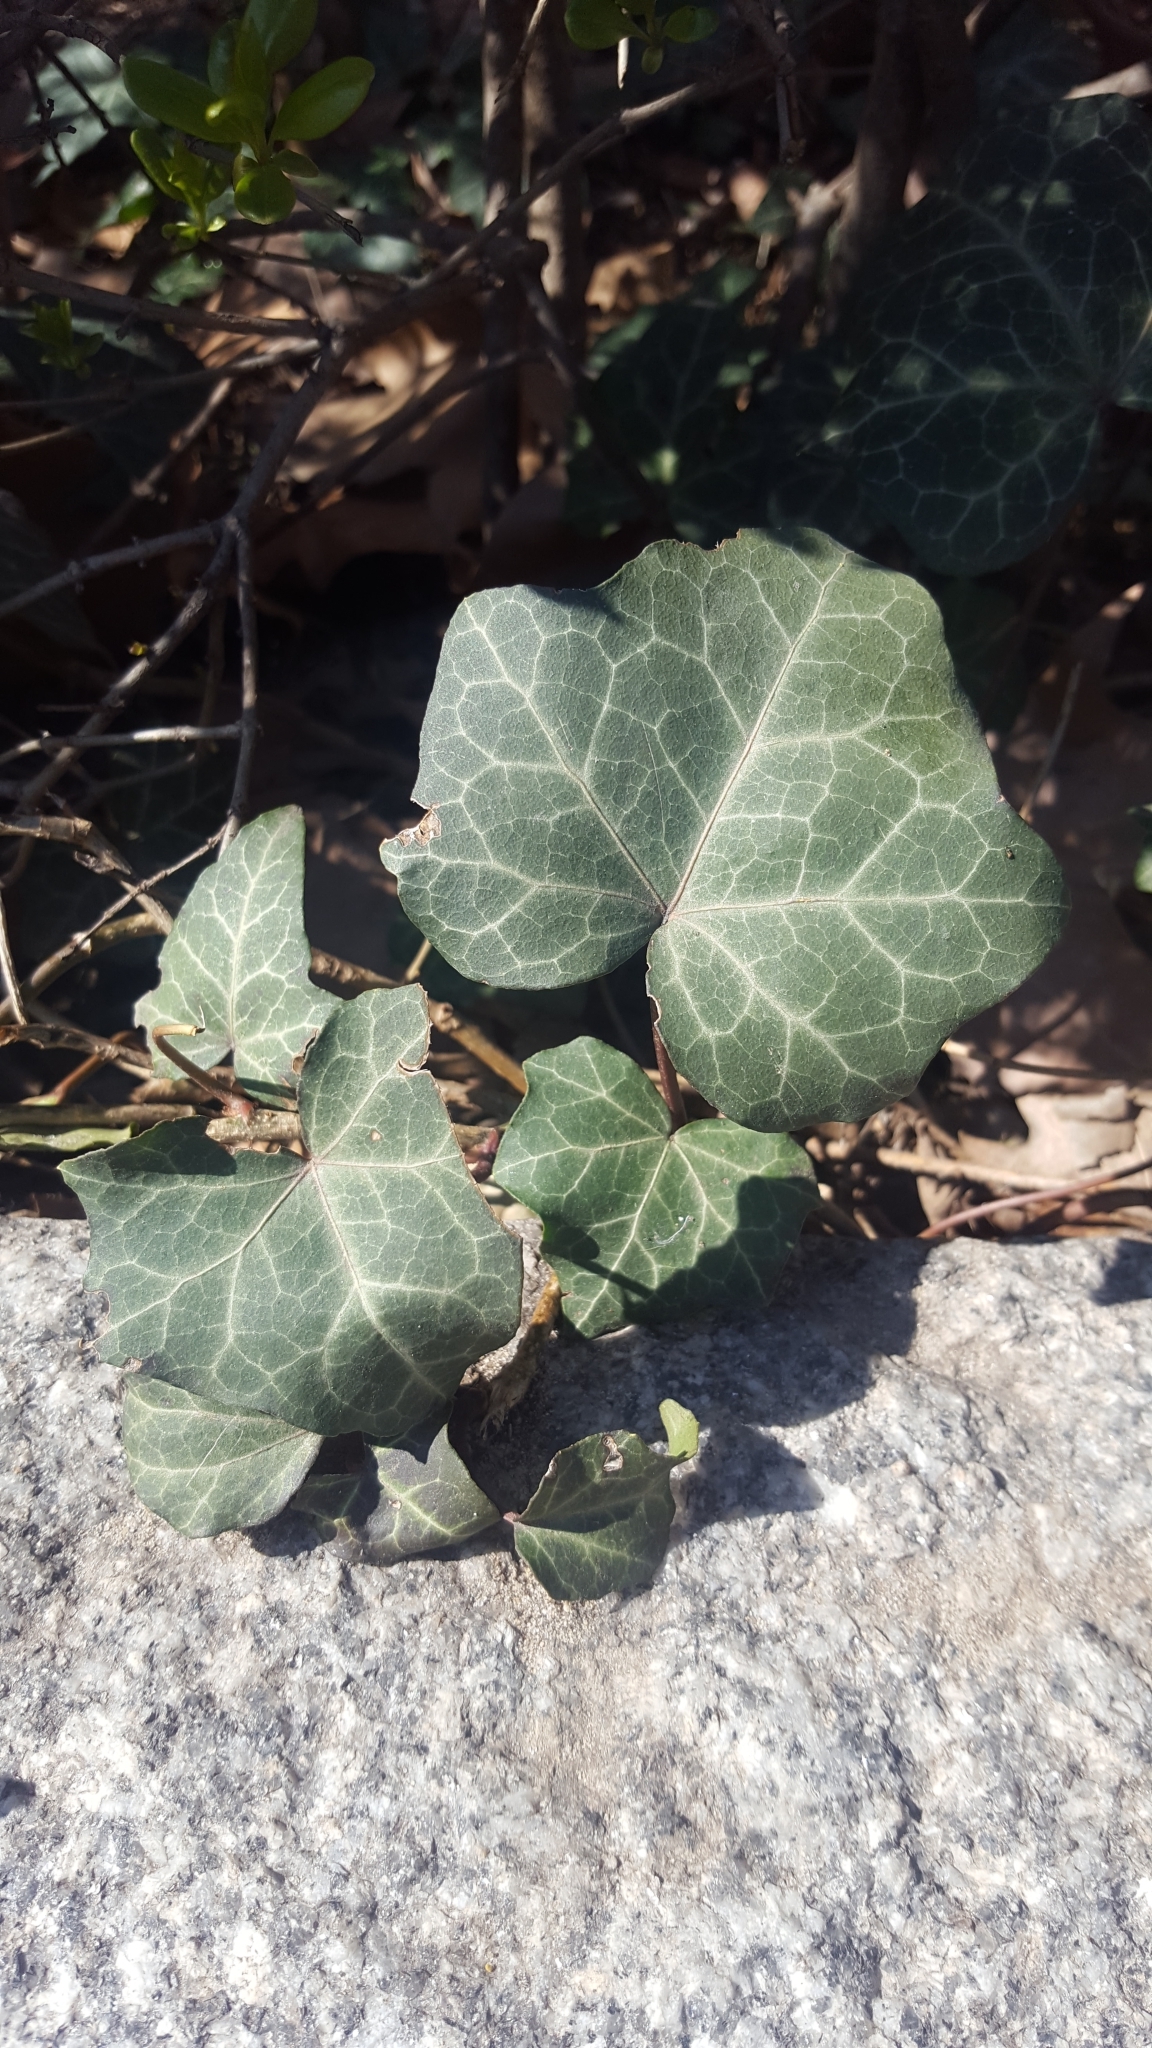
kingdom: Plantae
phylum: Tracheophyta
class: Magnoliopsida
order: Apiales
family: Araliaceae
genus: Hedera
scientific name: Hedera helix
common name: Ivy
